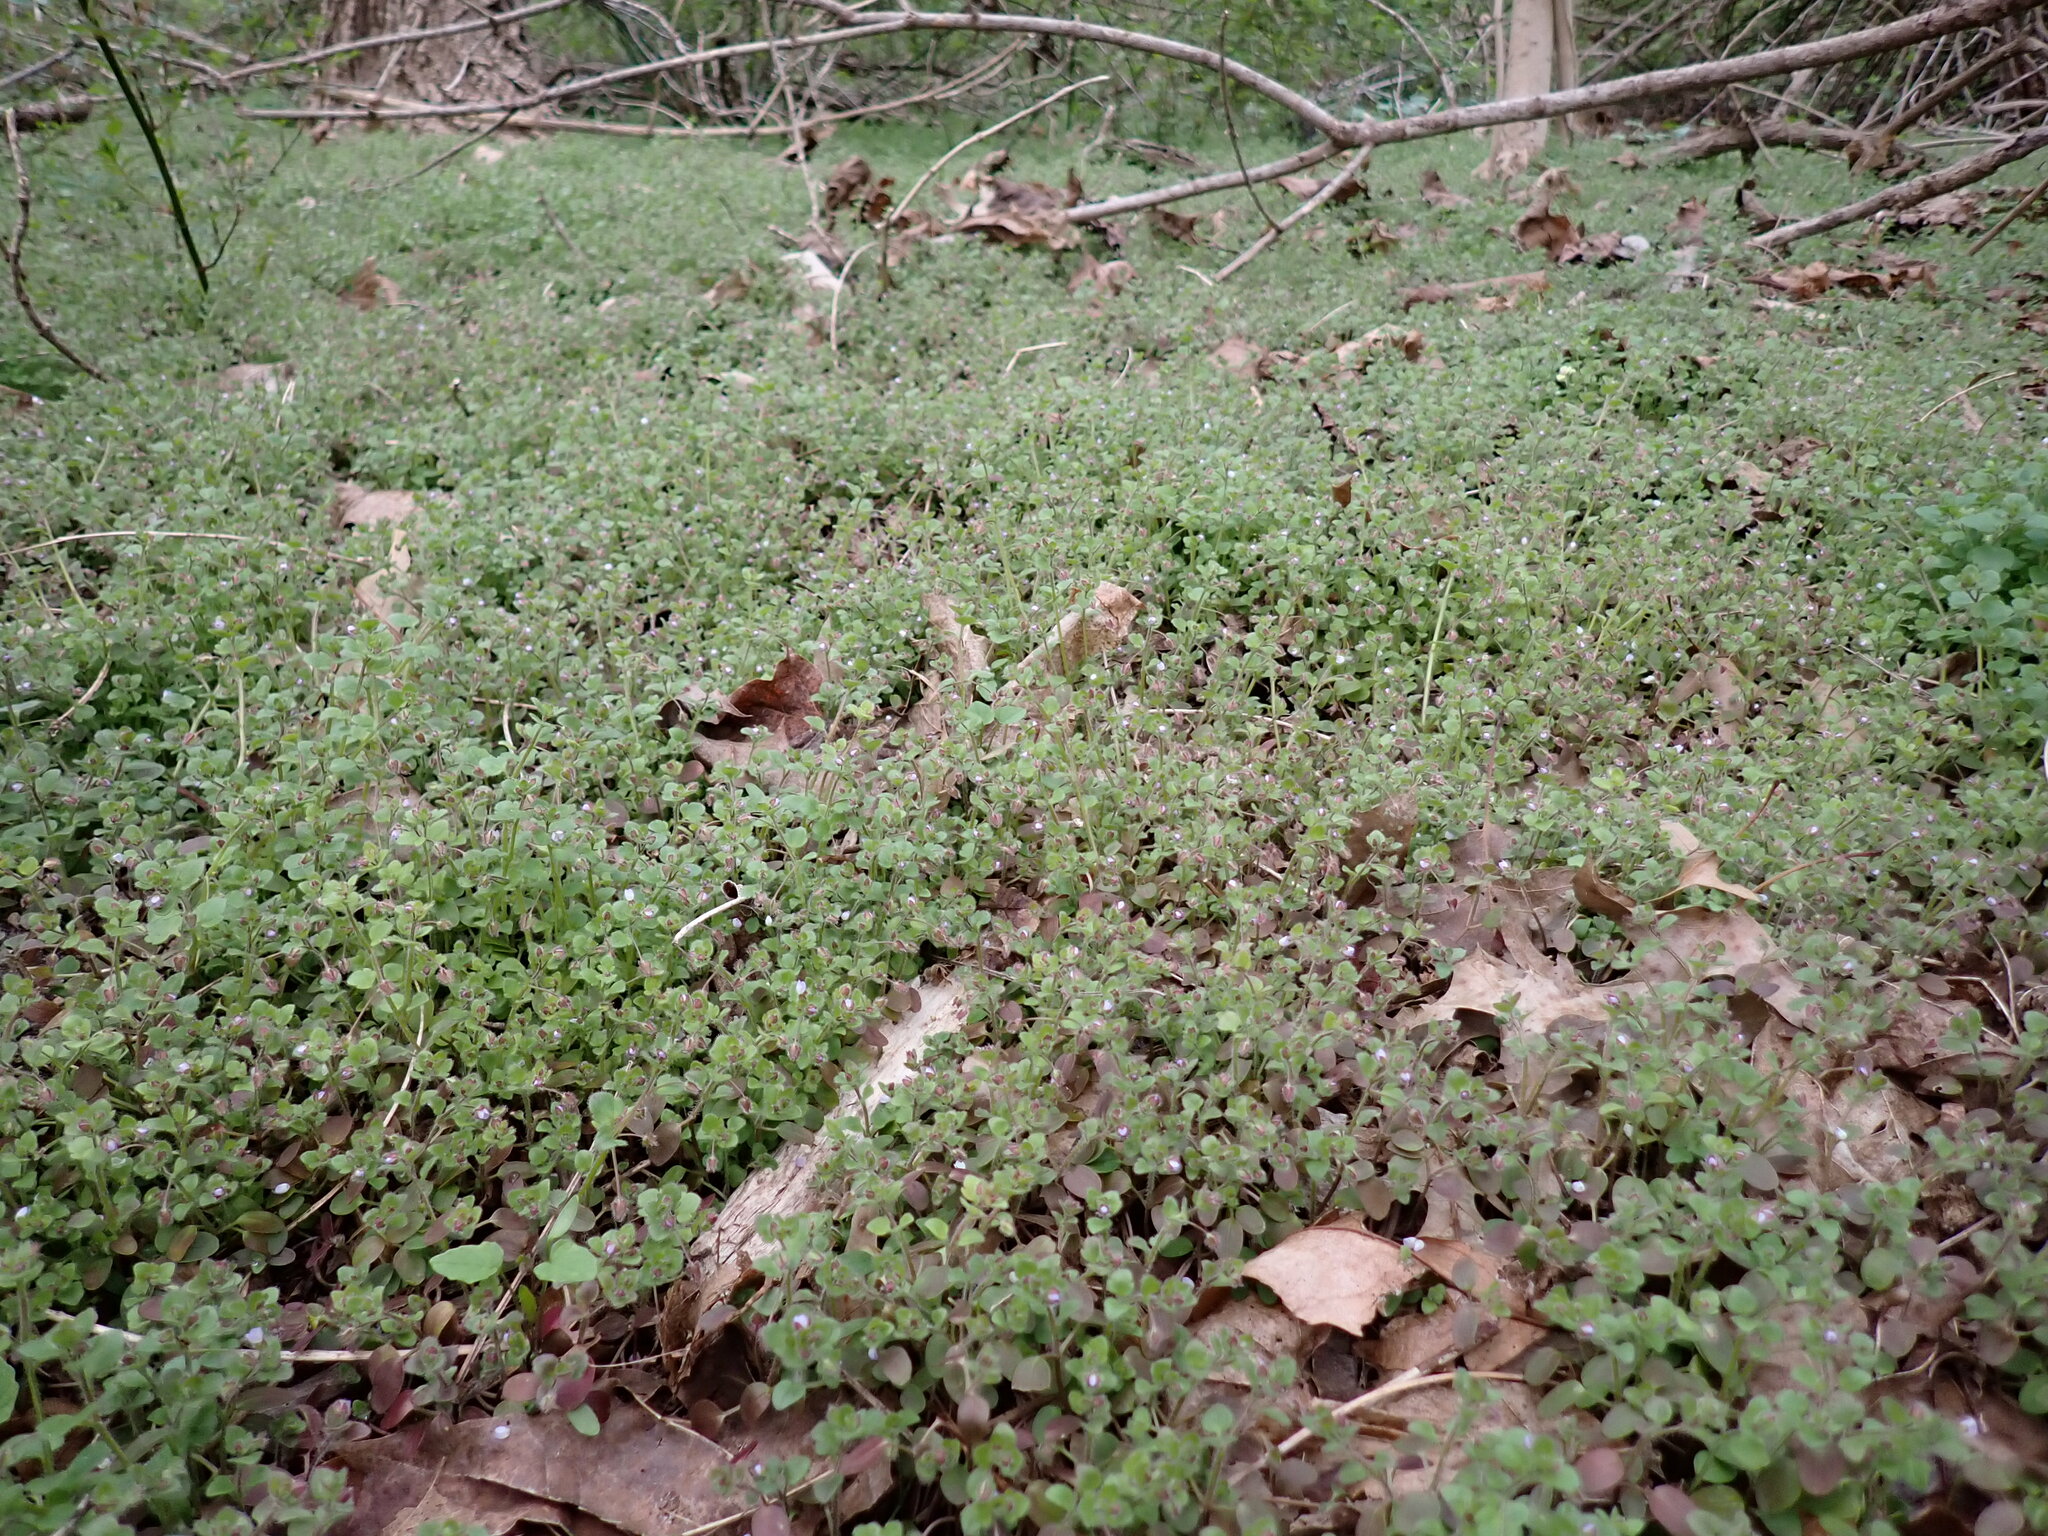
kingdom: Plantae
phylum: Tracheophyta
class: Magnoliopsida
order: Lamiales
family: Plantaginaceae
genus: Veronica
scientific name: Veronica sublobata
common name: False ivy-leaved speedwell
